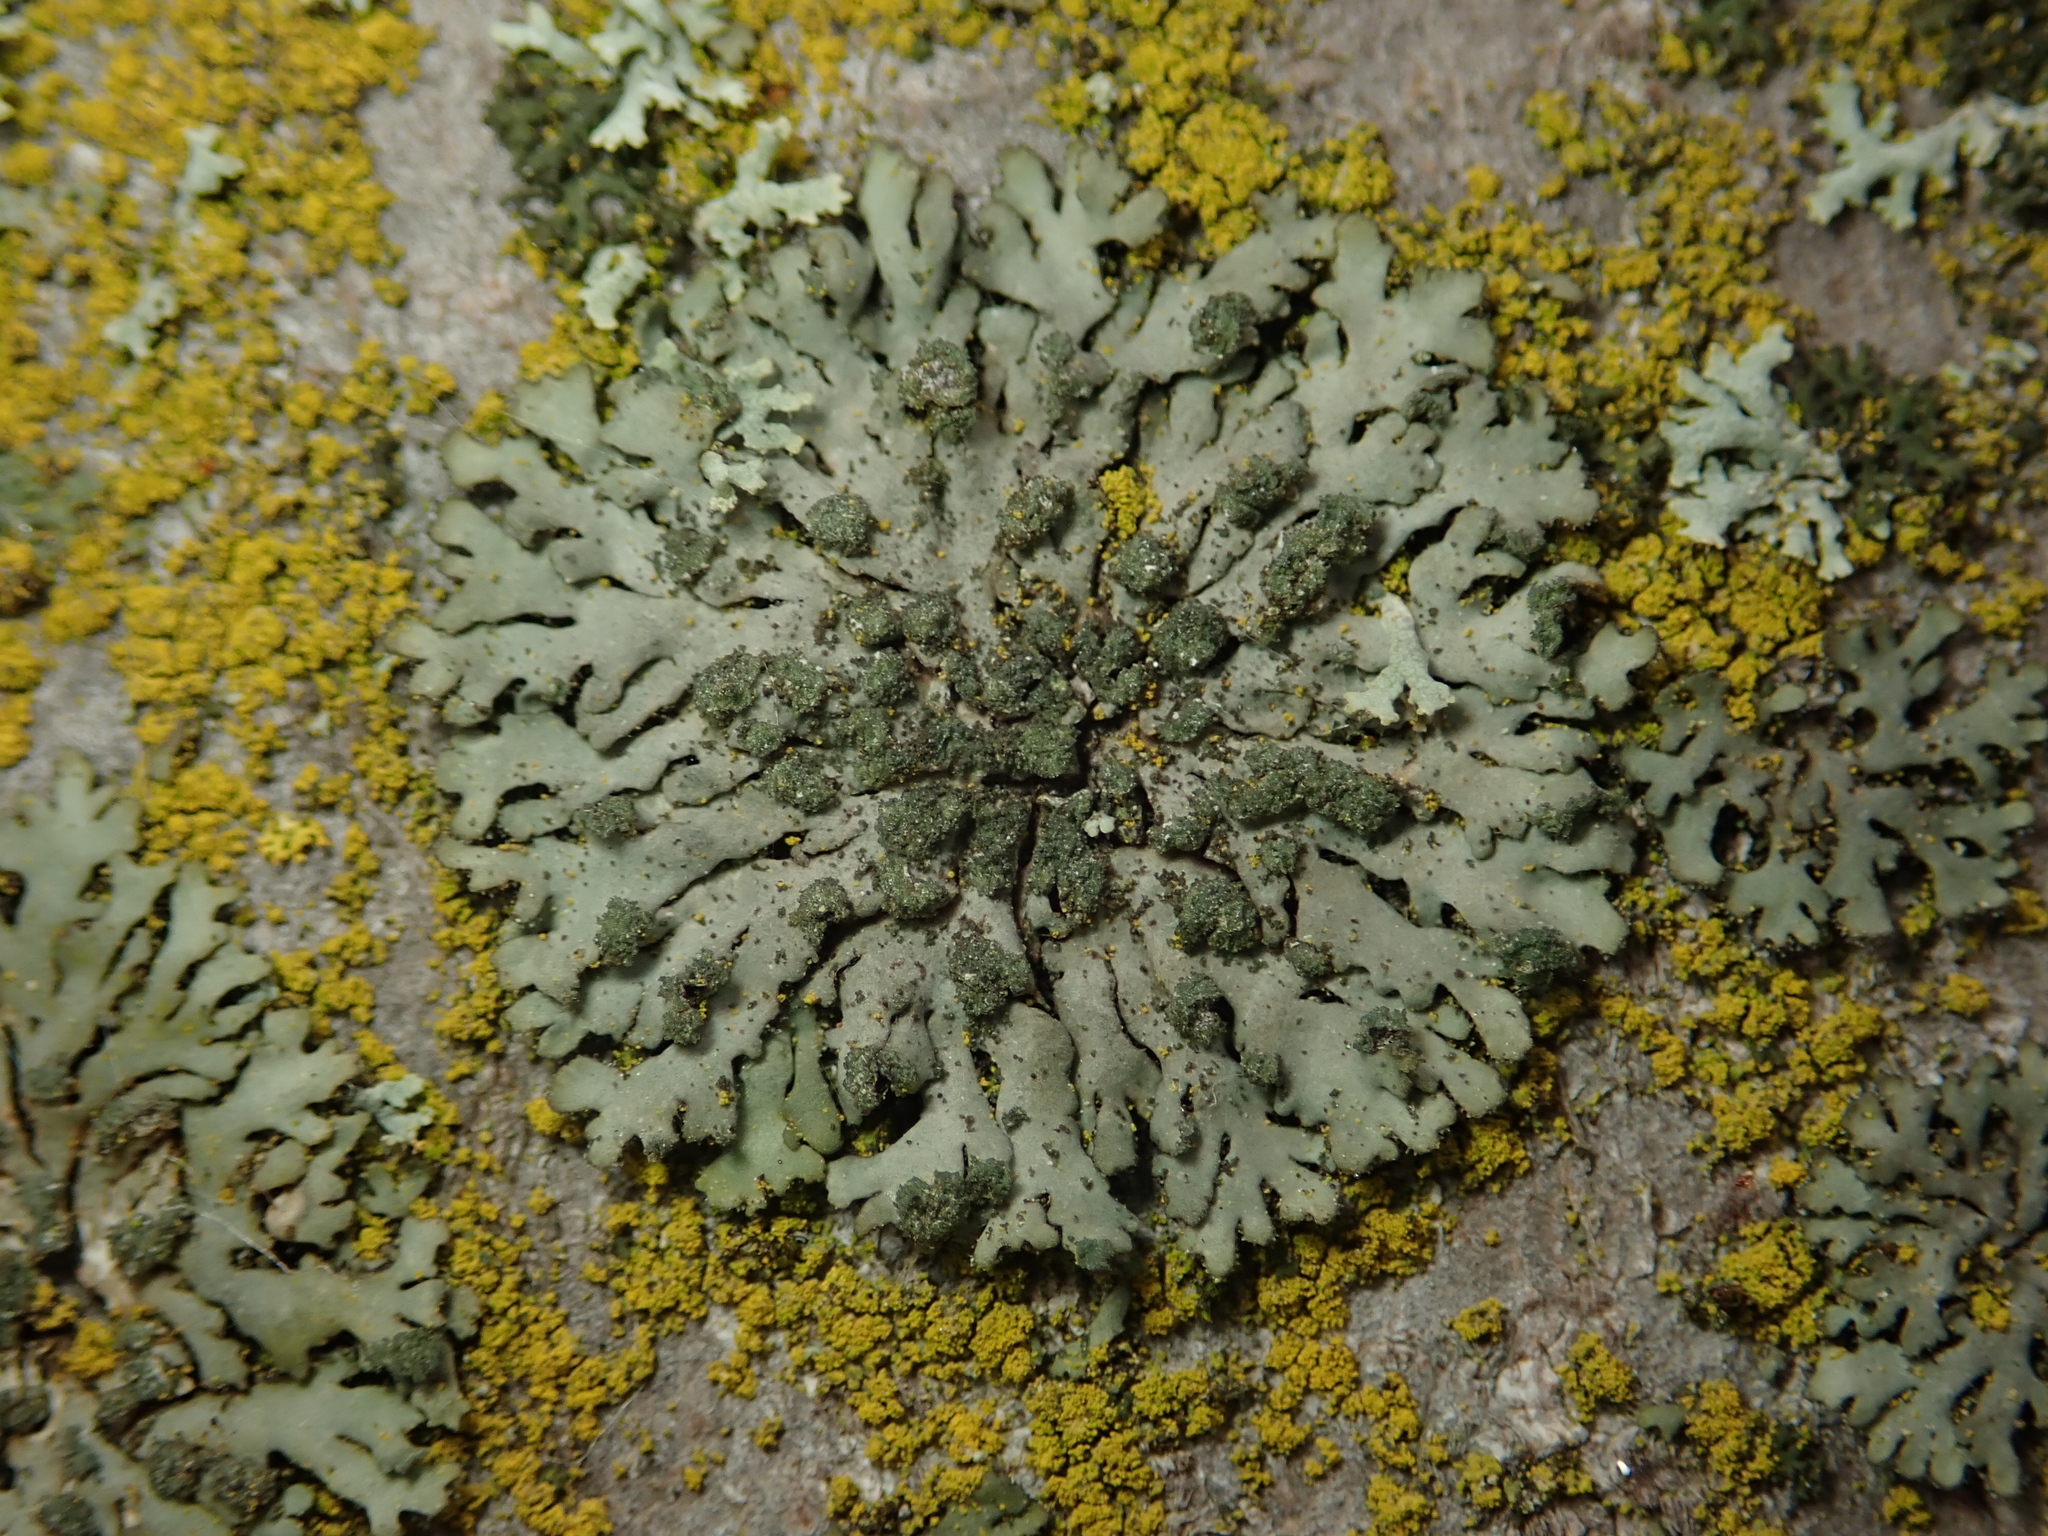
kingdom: Fungi
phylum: Ascomycota
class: Lecanoromycetes
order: Caliciales
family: Physciaceae
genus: Phaeophyscia
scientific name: Phaeophyscia orbicularis
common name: Mealy shadow lichen
